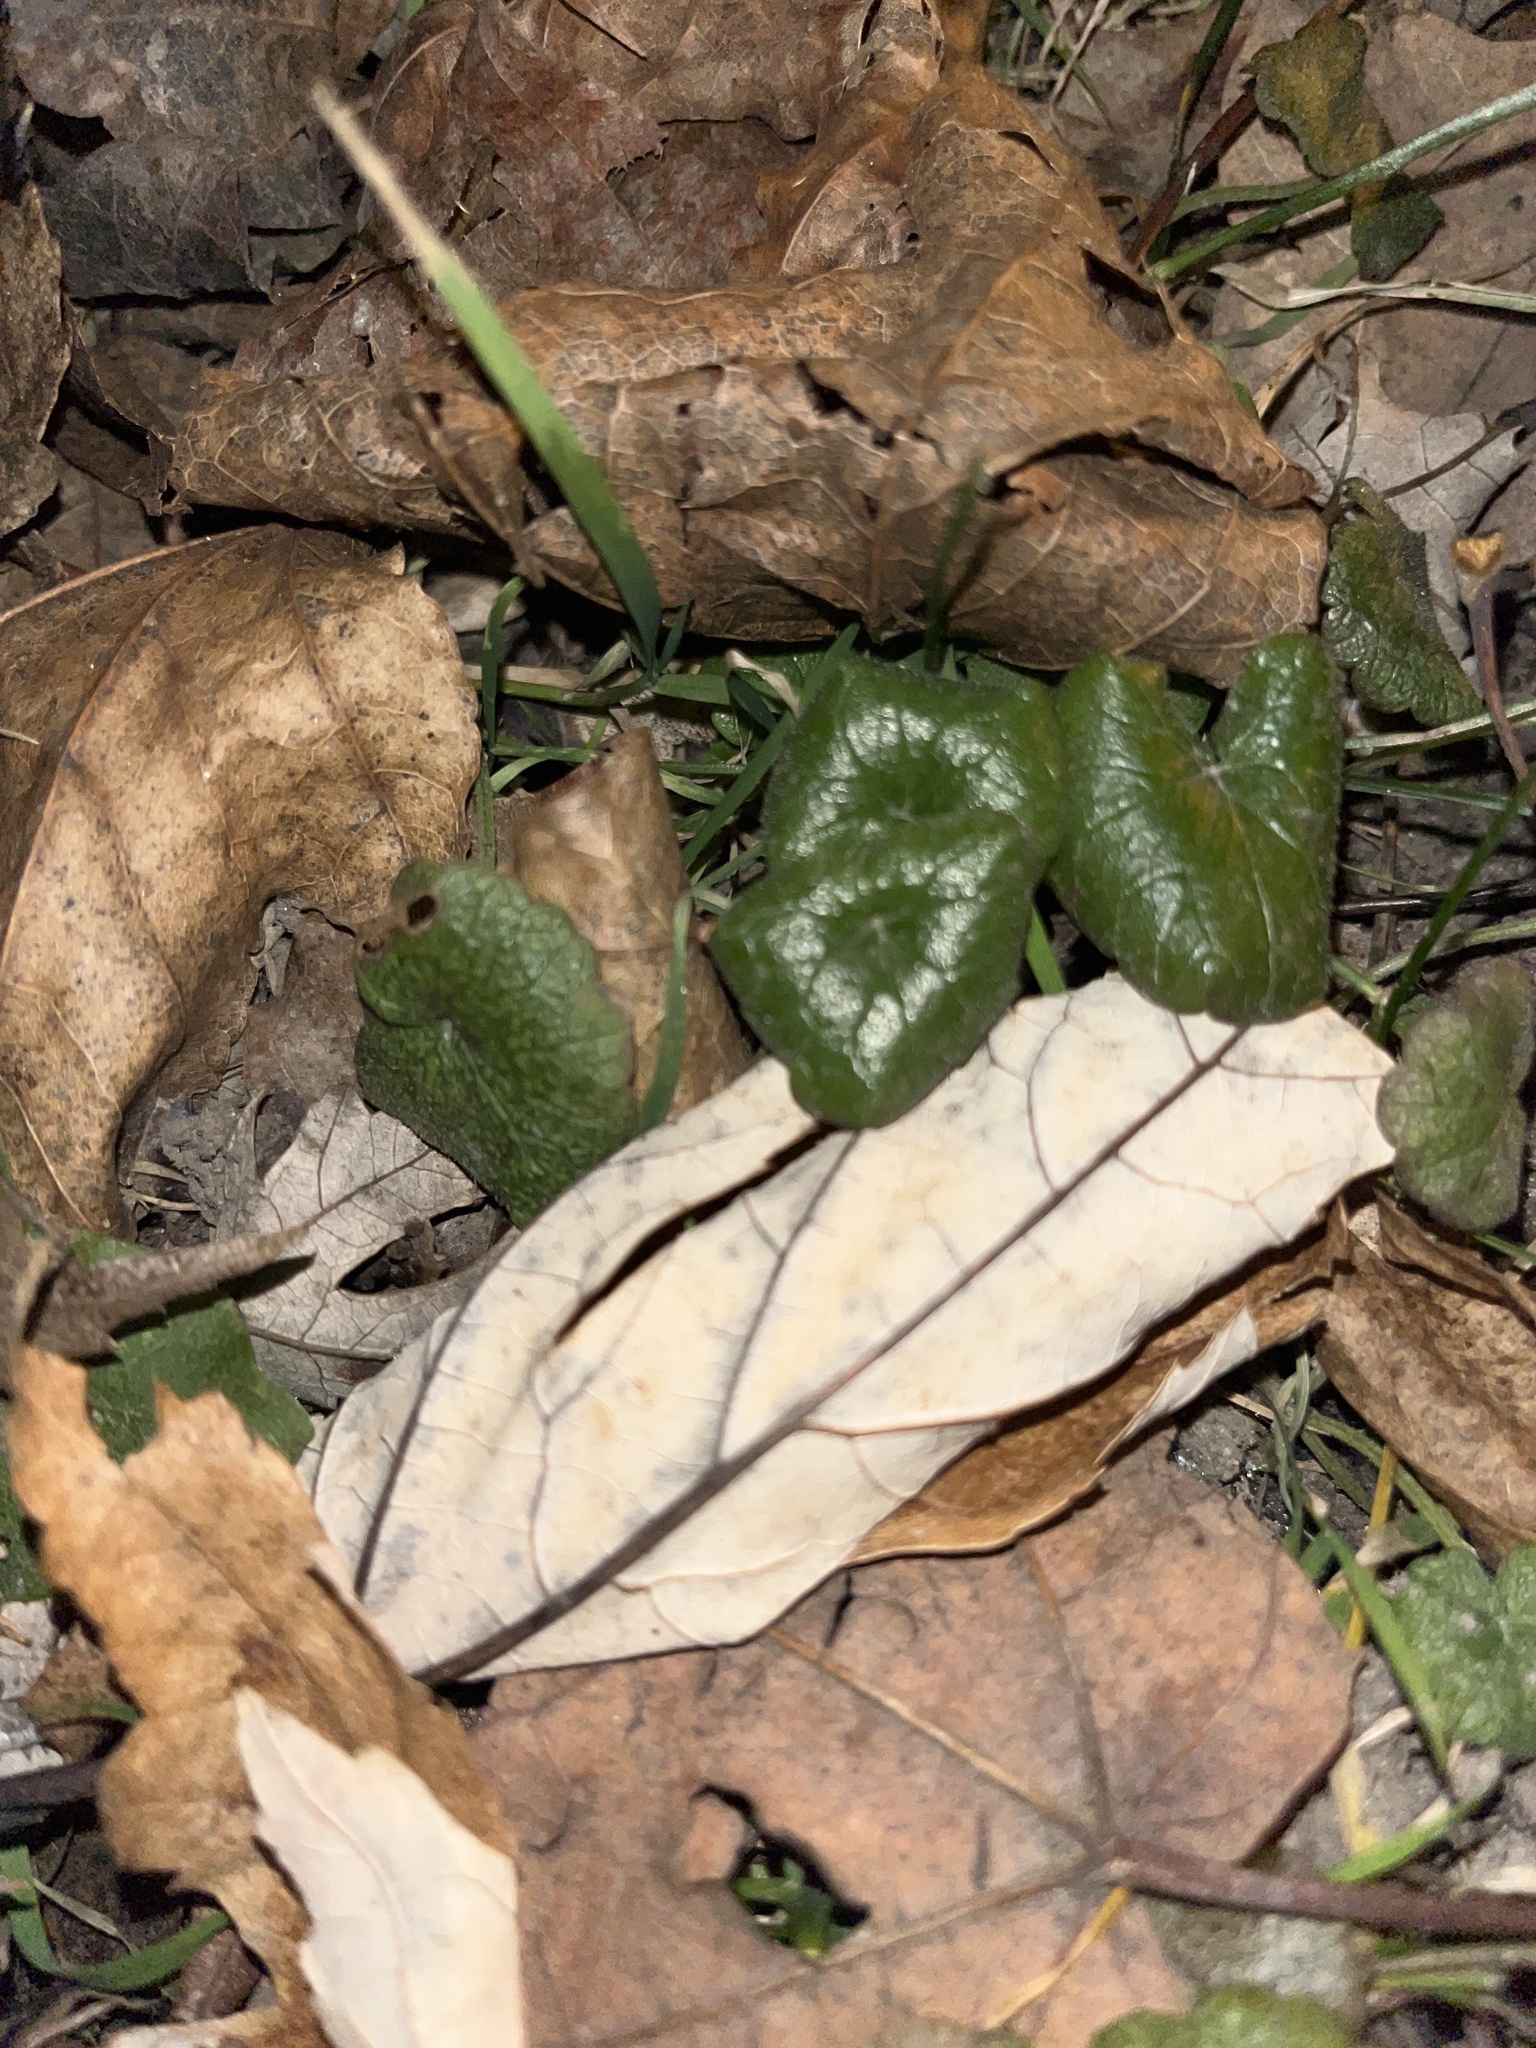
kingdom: Plantae
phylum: Tracheophyta
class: Magnoliopsida
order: Lamiales
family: Lamiaceae
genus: Glechoma
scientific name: Glechoma hederacea
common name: Ground ivy
